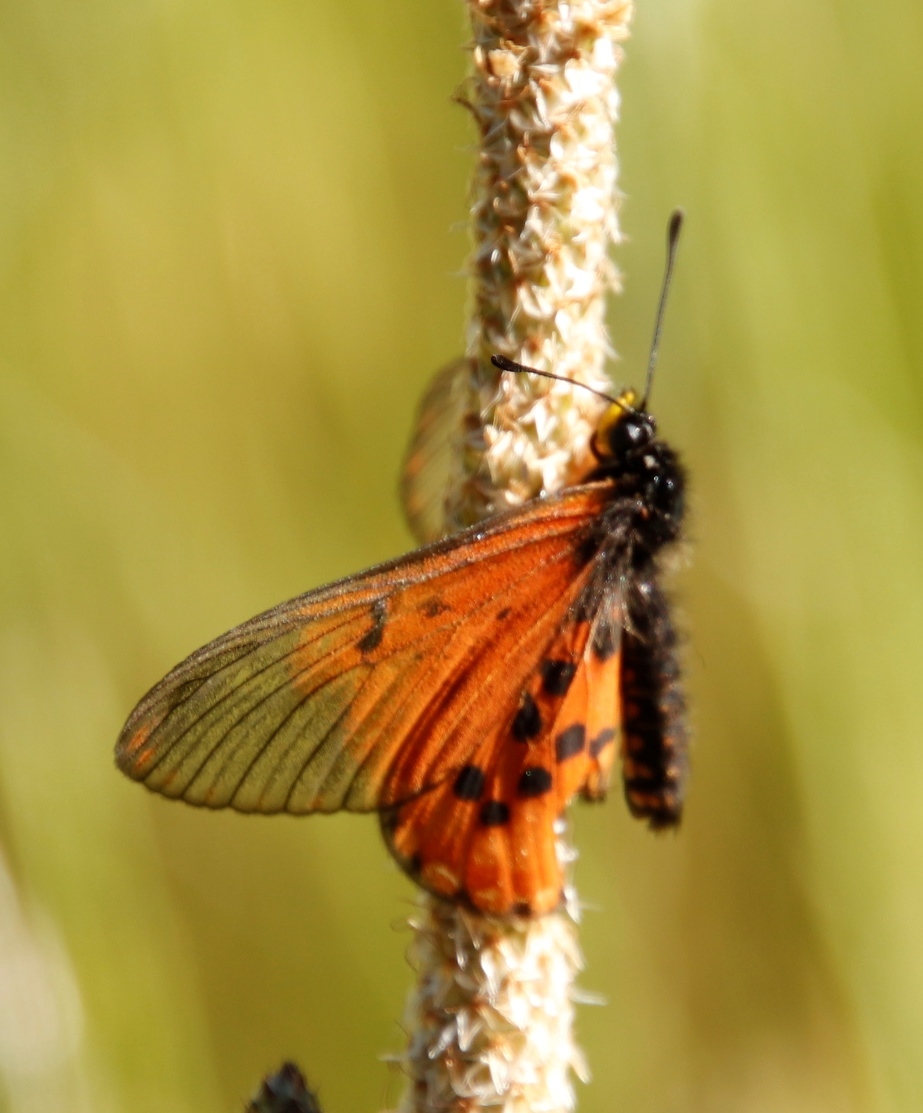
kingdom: Animalia
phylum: Arthropoda
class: Insecta
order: Lepidoptera
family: Nymphalidae
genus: Acraea
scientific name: Acraea horta
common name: Garden acraea
